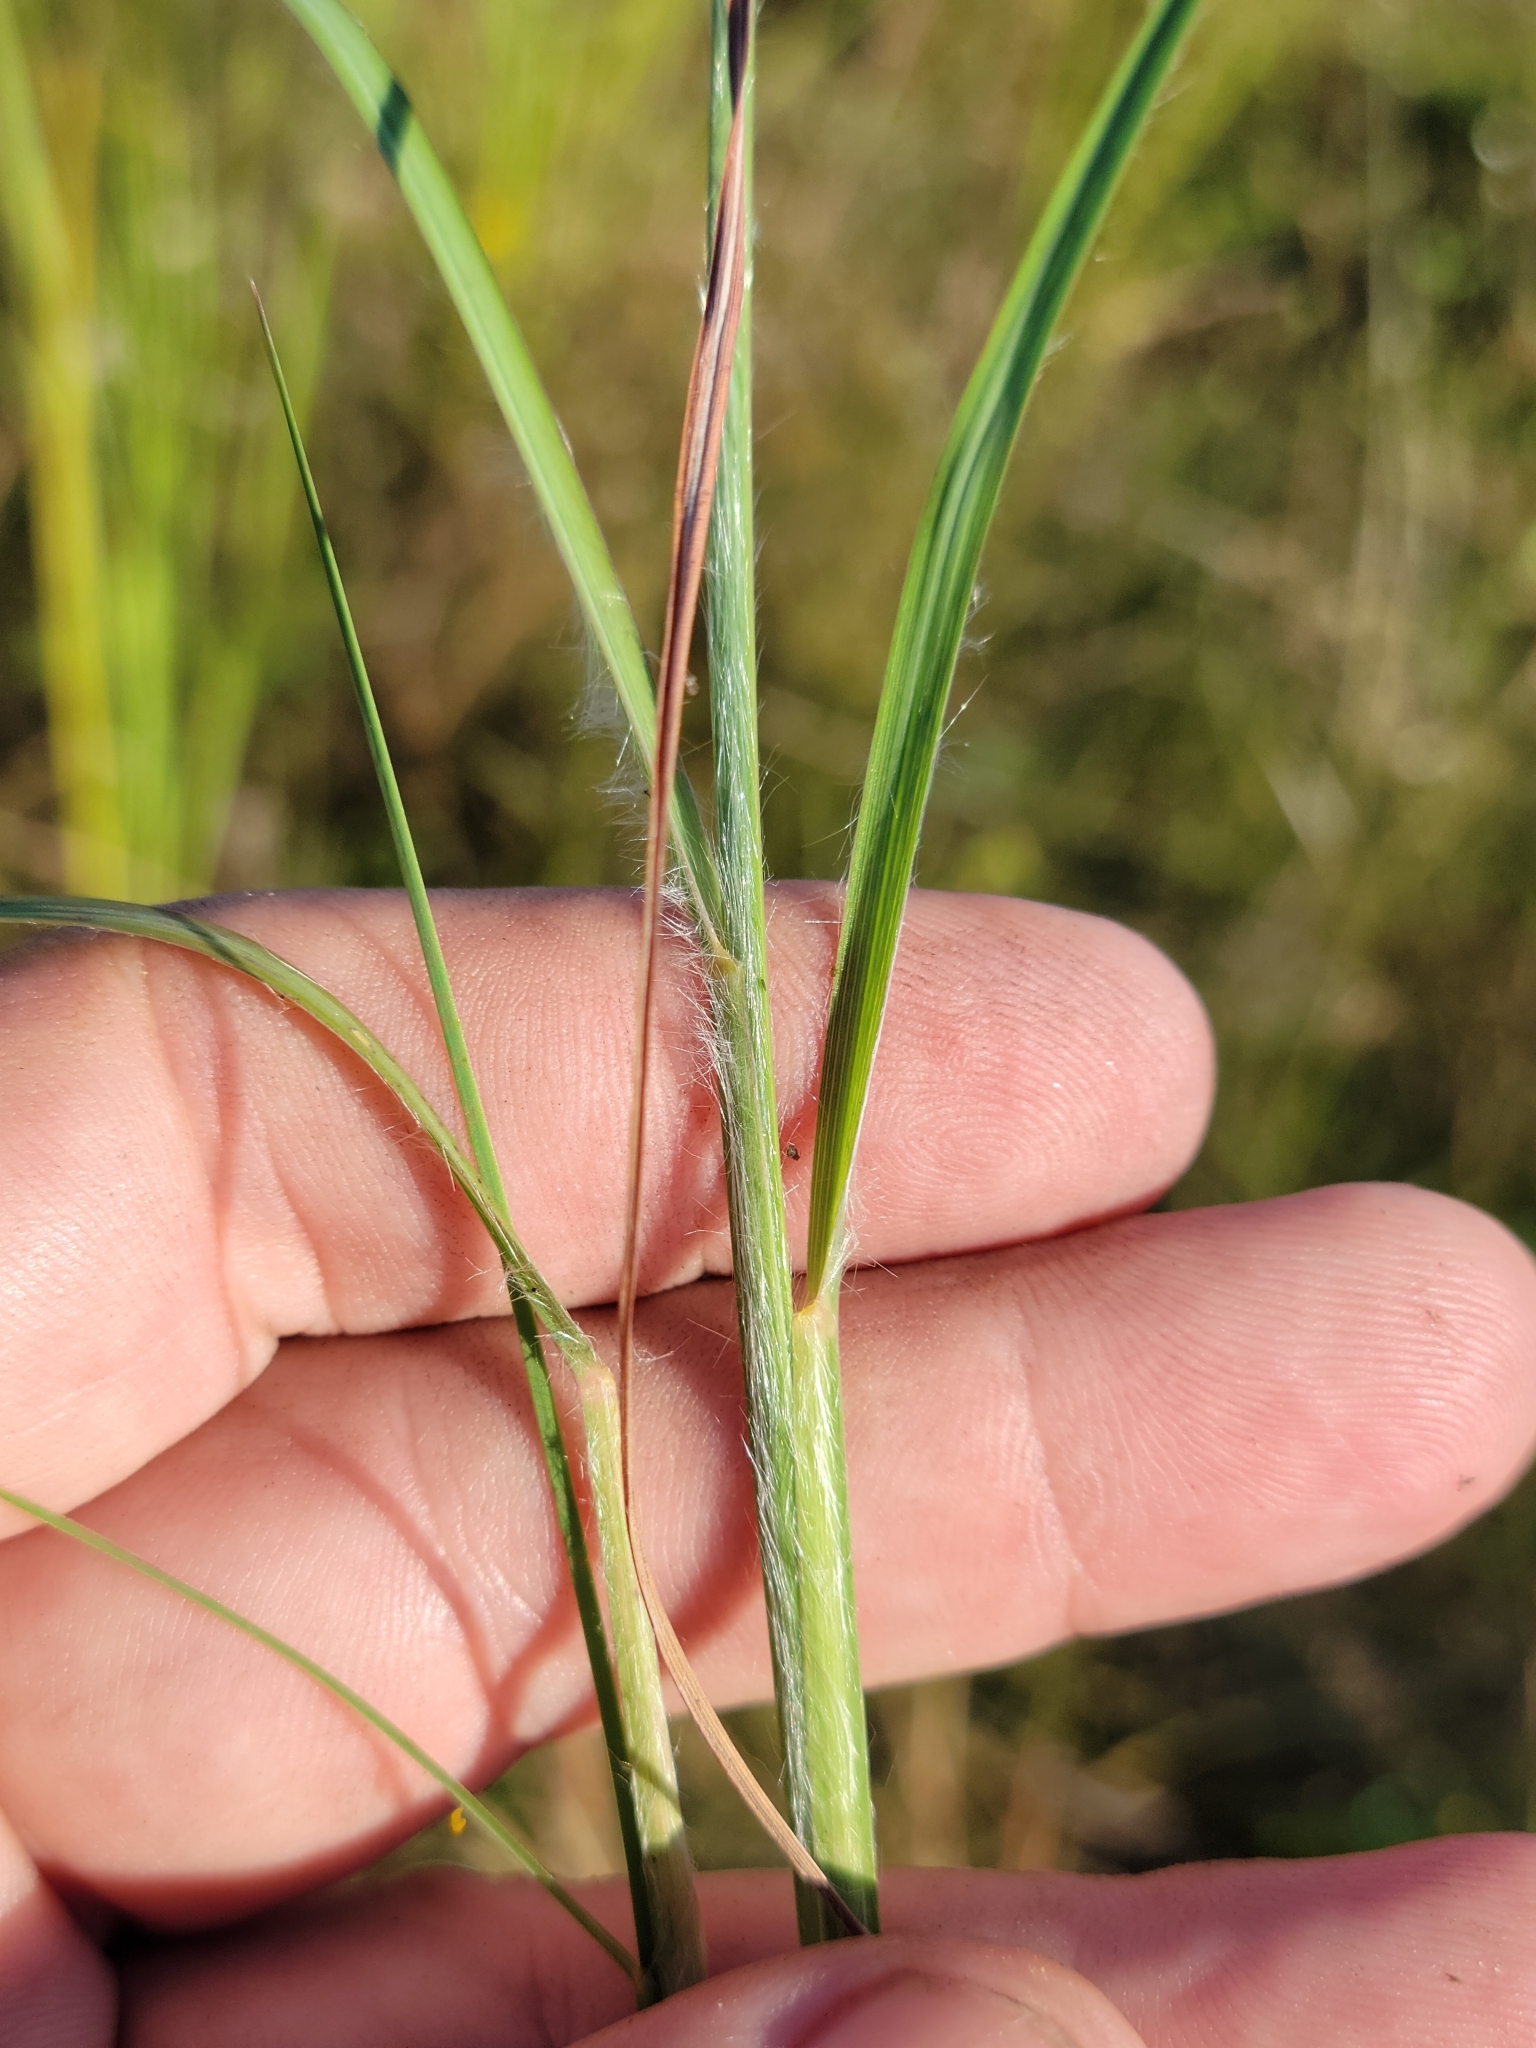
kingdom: Plantae
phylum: Tracheophyta
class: Liliopsida
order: Poales
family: Poaceae
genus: Andropogon
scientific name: Andropogon longiberbis
